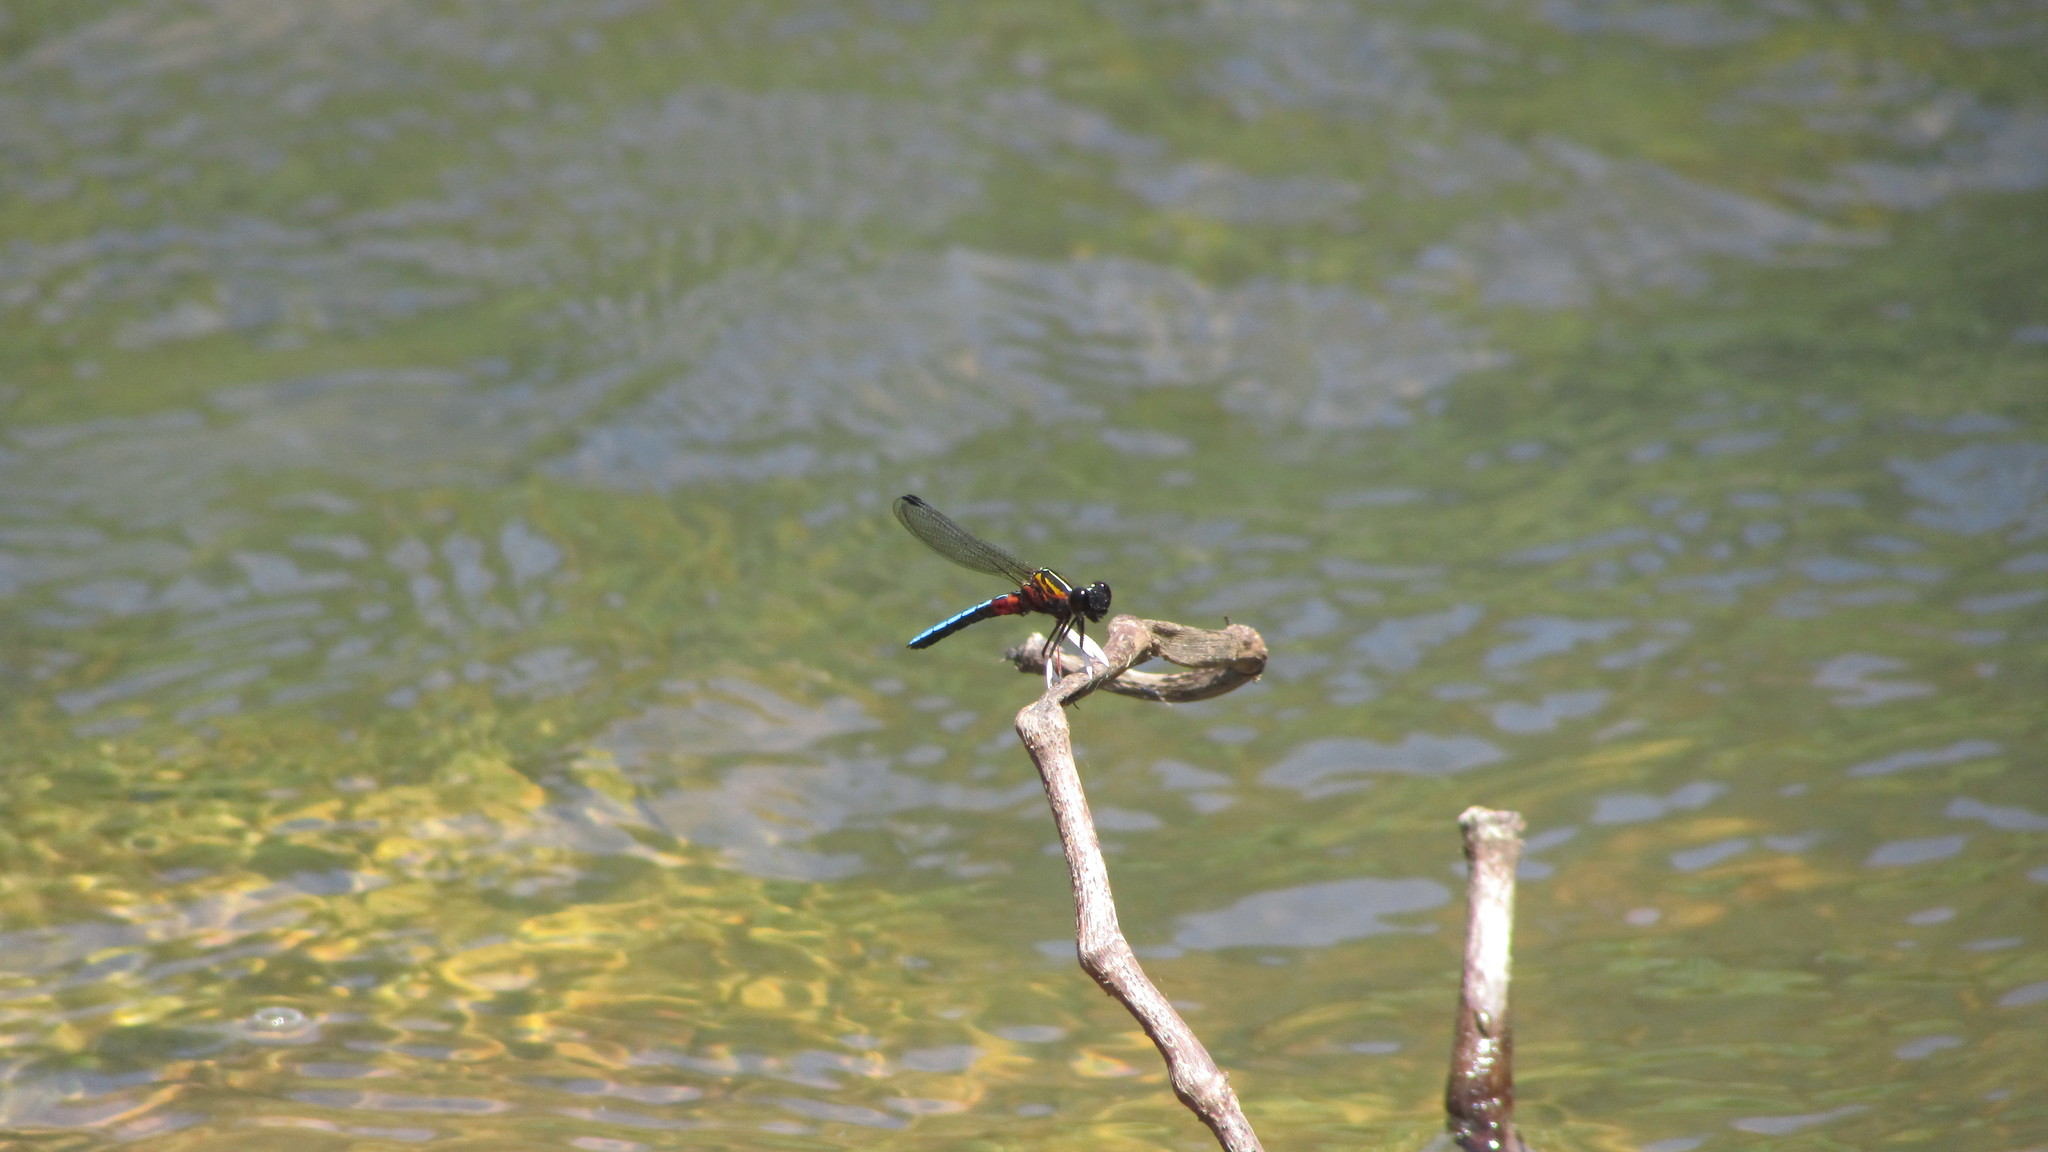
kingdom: Animalia
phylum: Arthropoda
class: Insecta
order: Odonata
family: Chlorocyphidae
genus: Platycypha
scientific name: Platycypha caligata
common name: Dancing jewel
